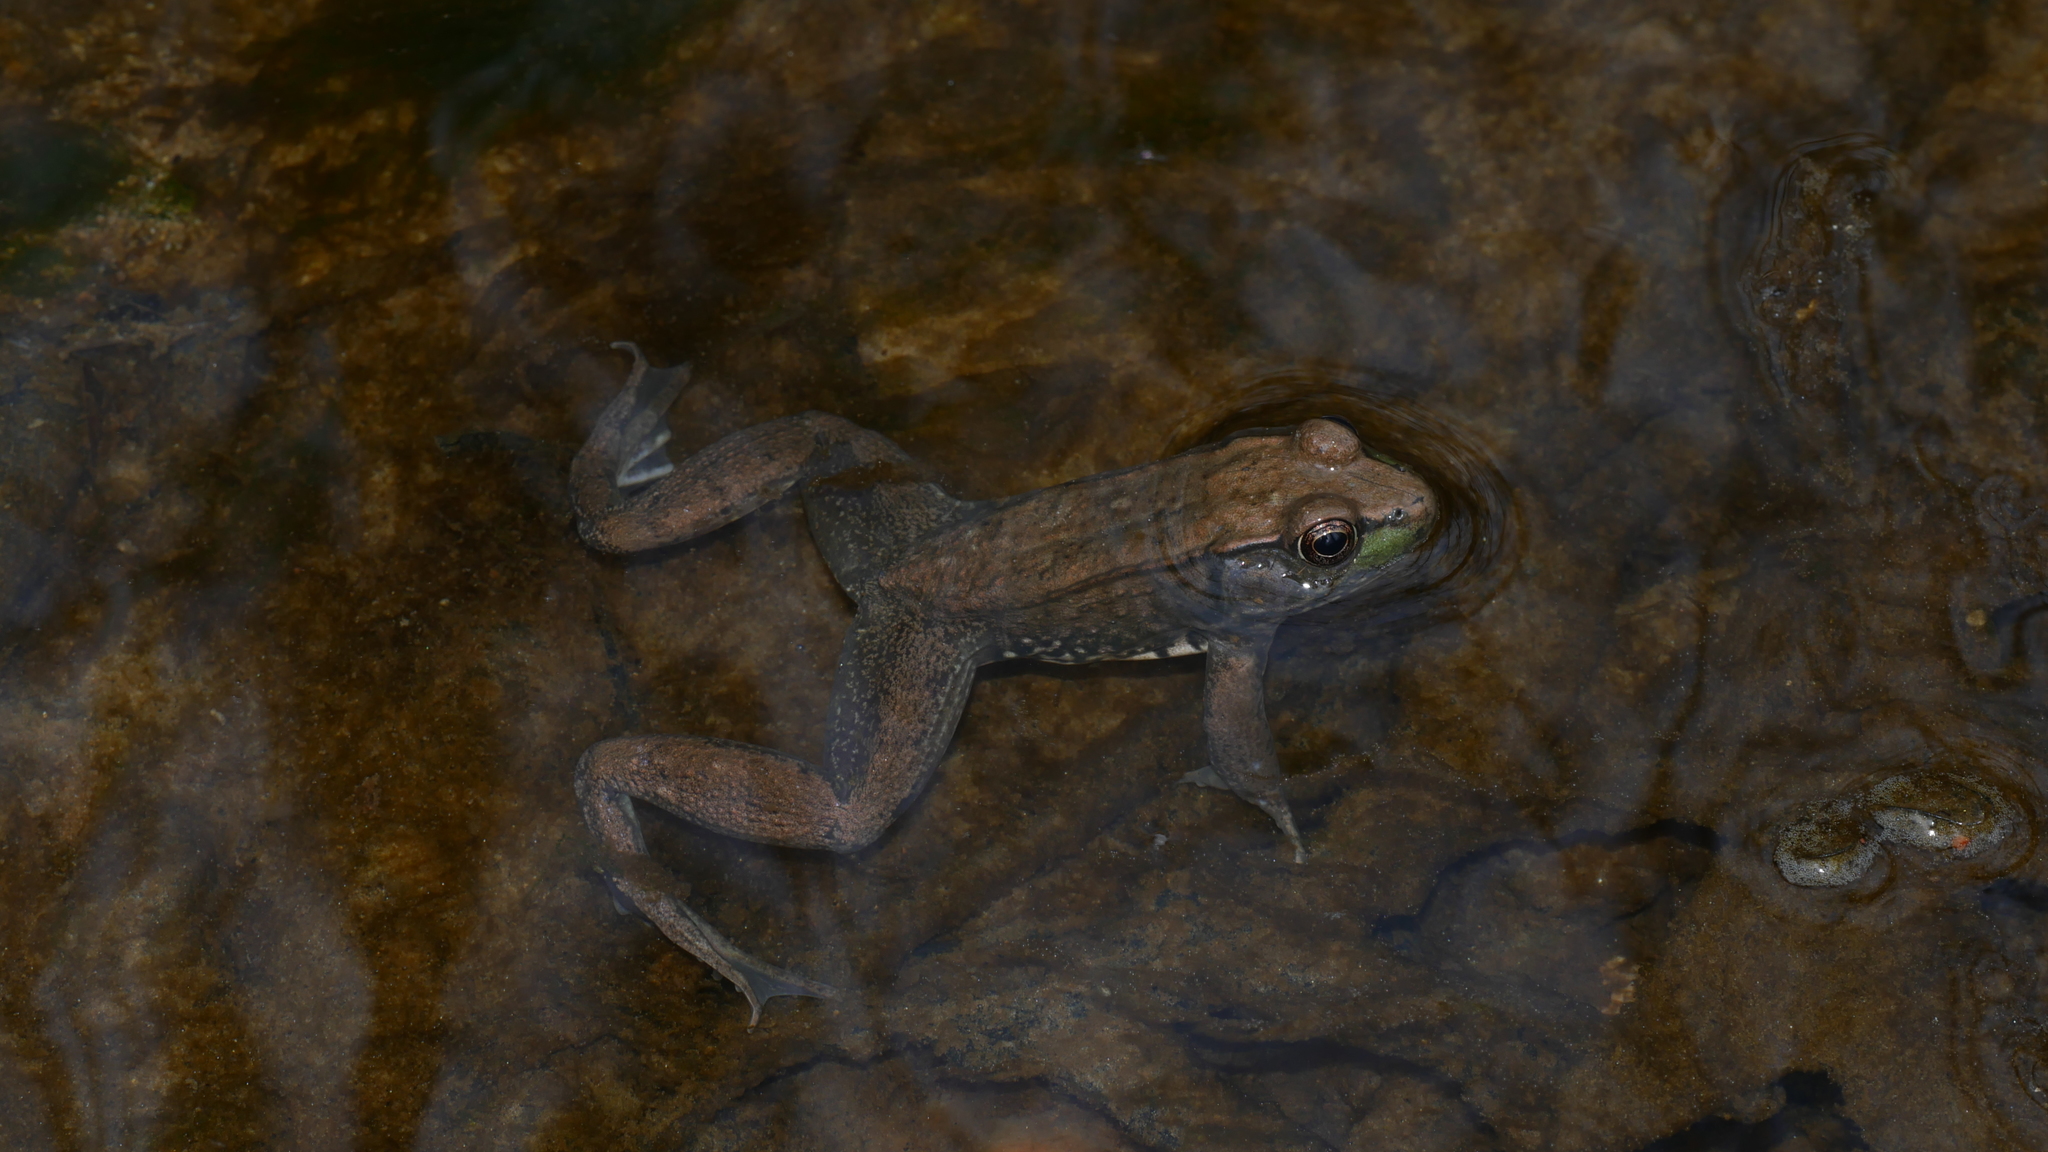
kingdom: Animalia
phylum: Chordata
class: Amphibia
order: Anura
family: Ranidae
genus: Lithobates
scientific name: Lithobates clamitans
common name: Green frog
